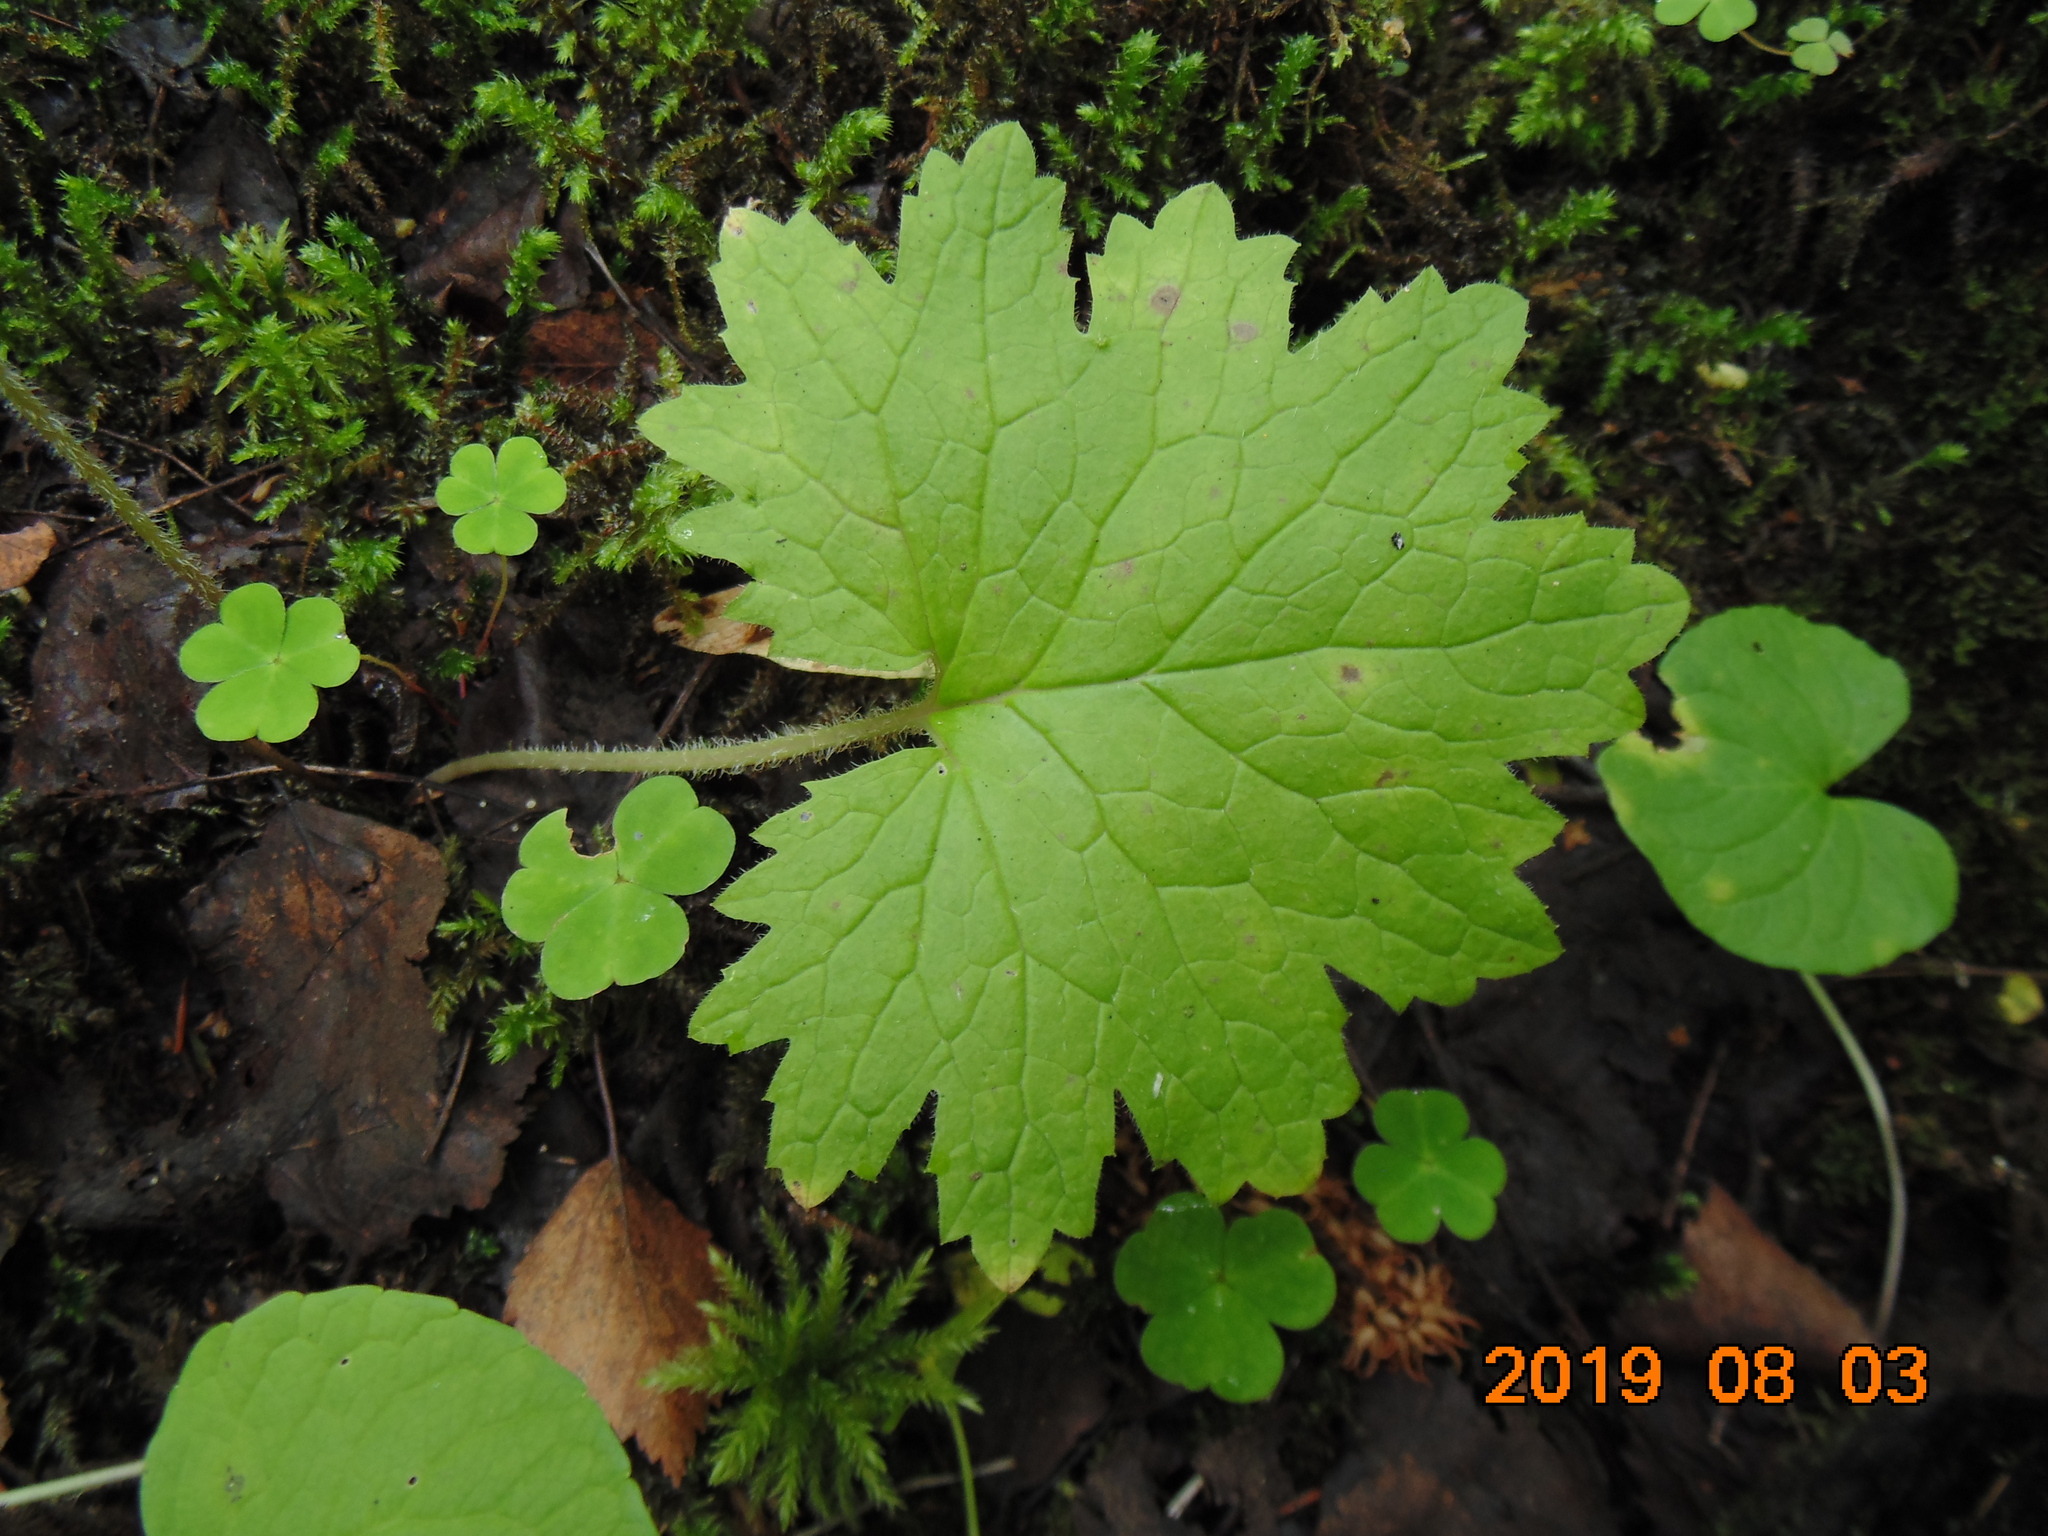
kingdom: Plantae
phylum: Tracheophyta
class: Magnoliopsida
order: Ericales
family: Primulaceae
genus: Primula
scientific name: Primula matthioli
